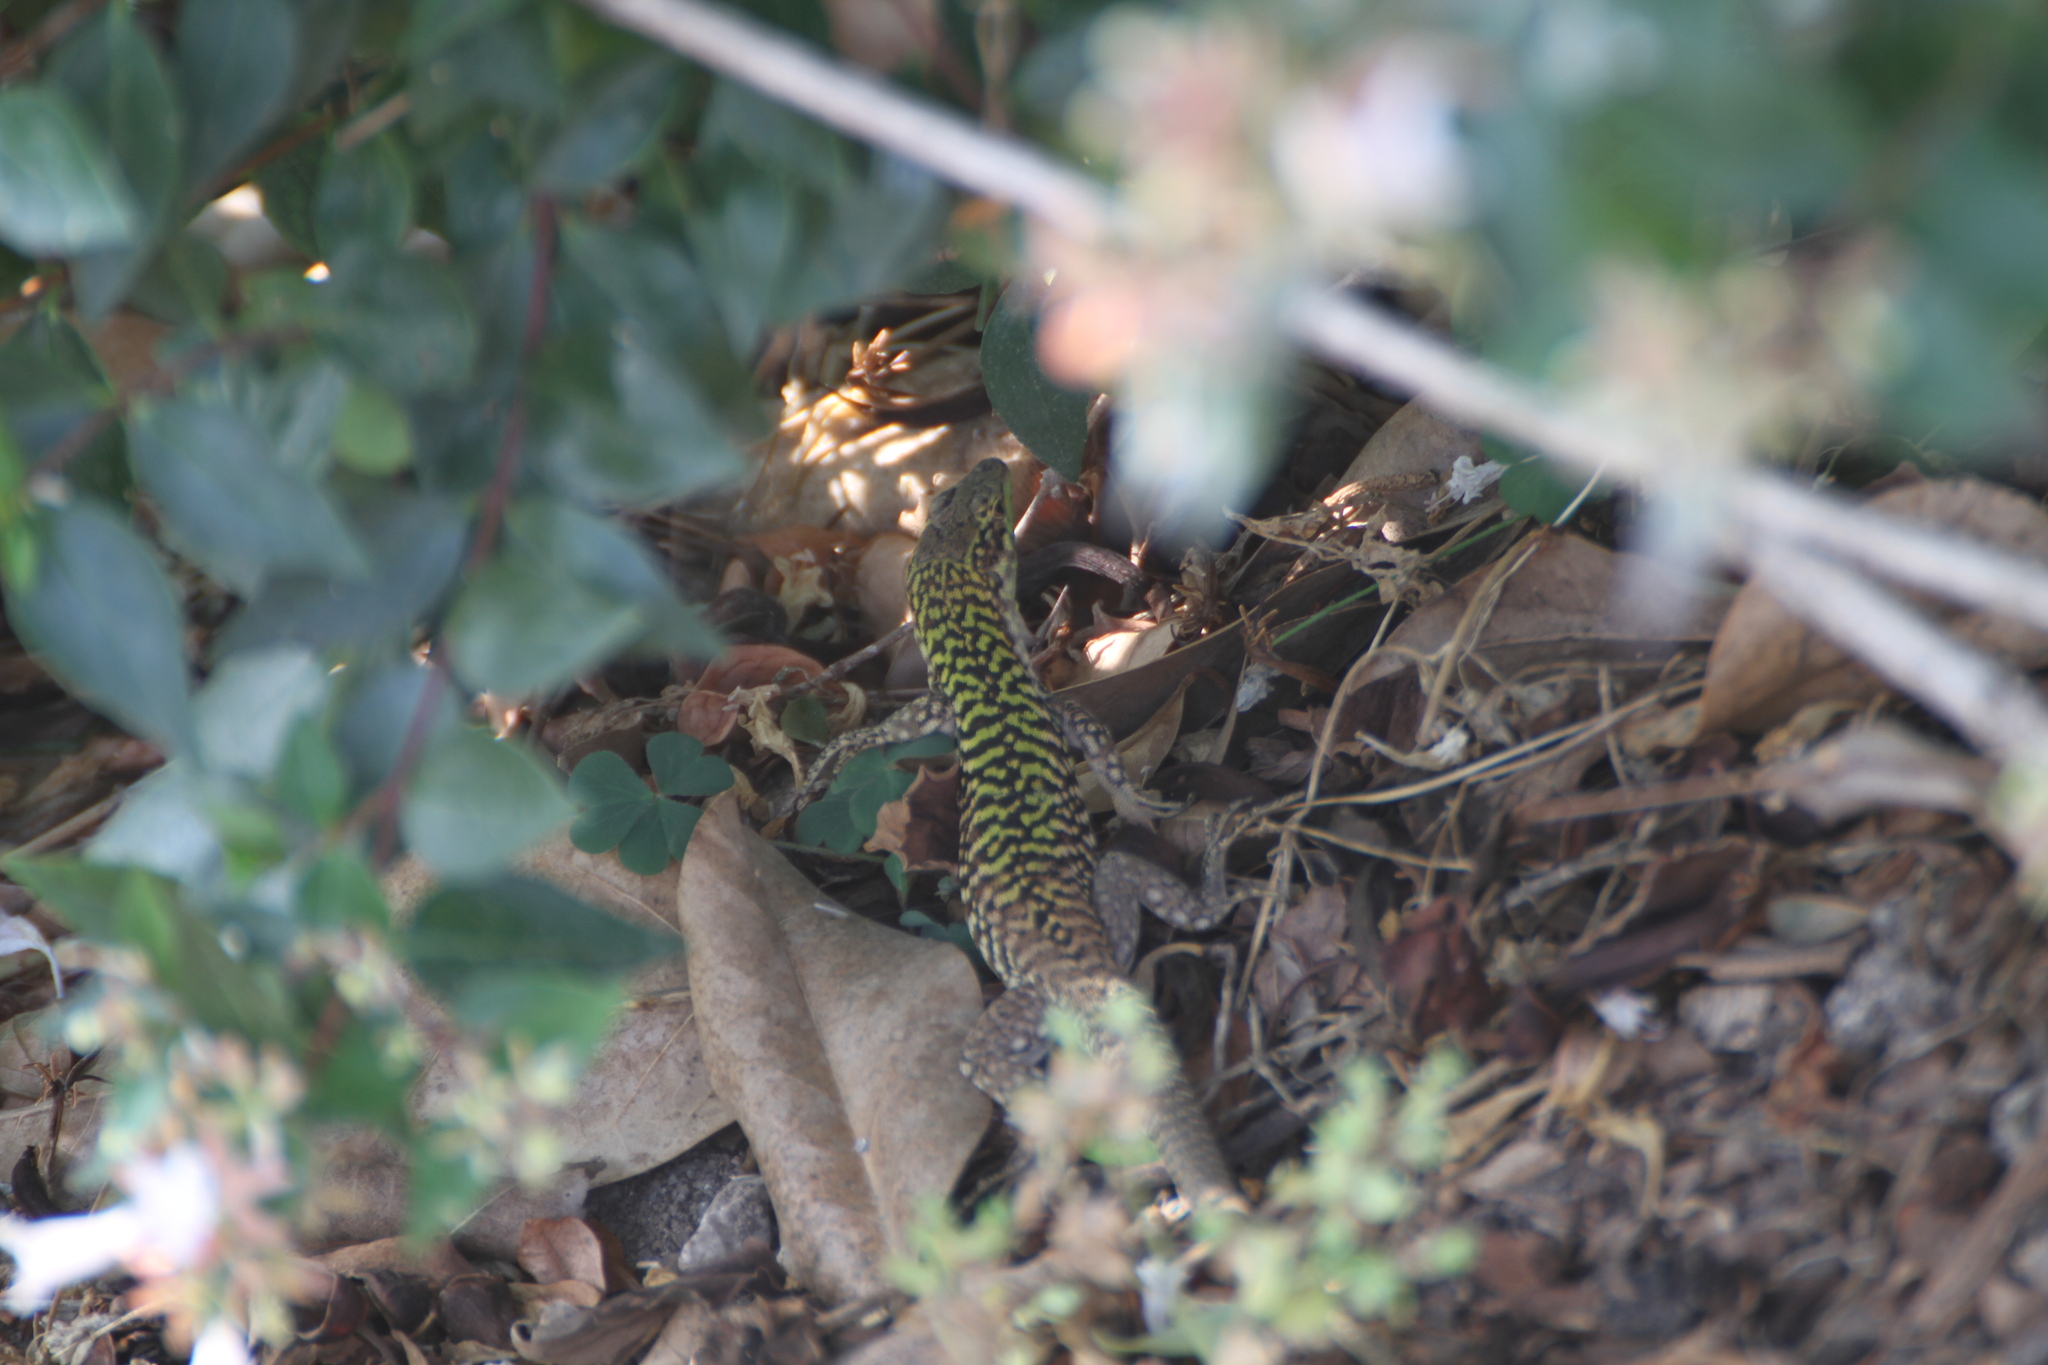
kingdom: Animalia
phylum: Chordata
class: Squamata
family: Lacertidae
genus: Podarcis
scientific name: Podarcis siculus
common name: Italian wall lizard
